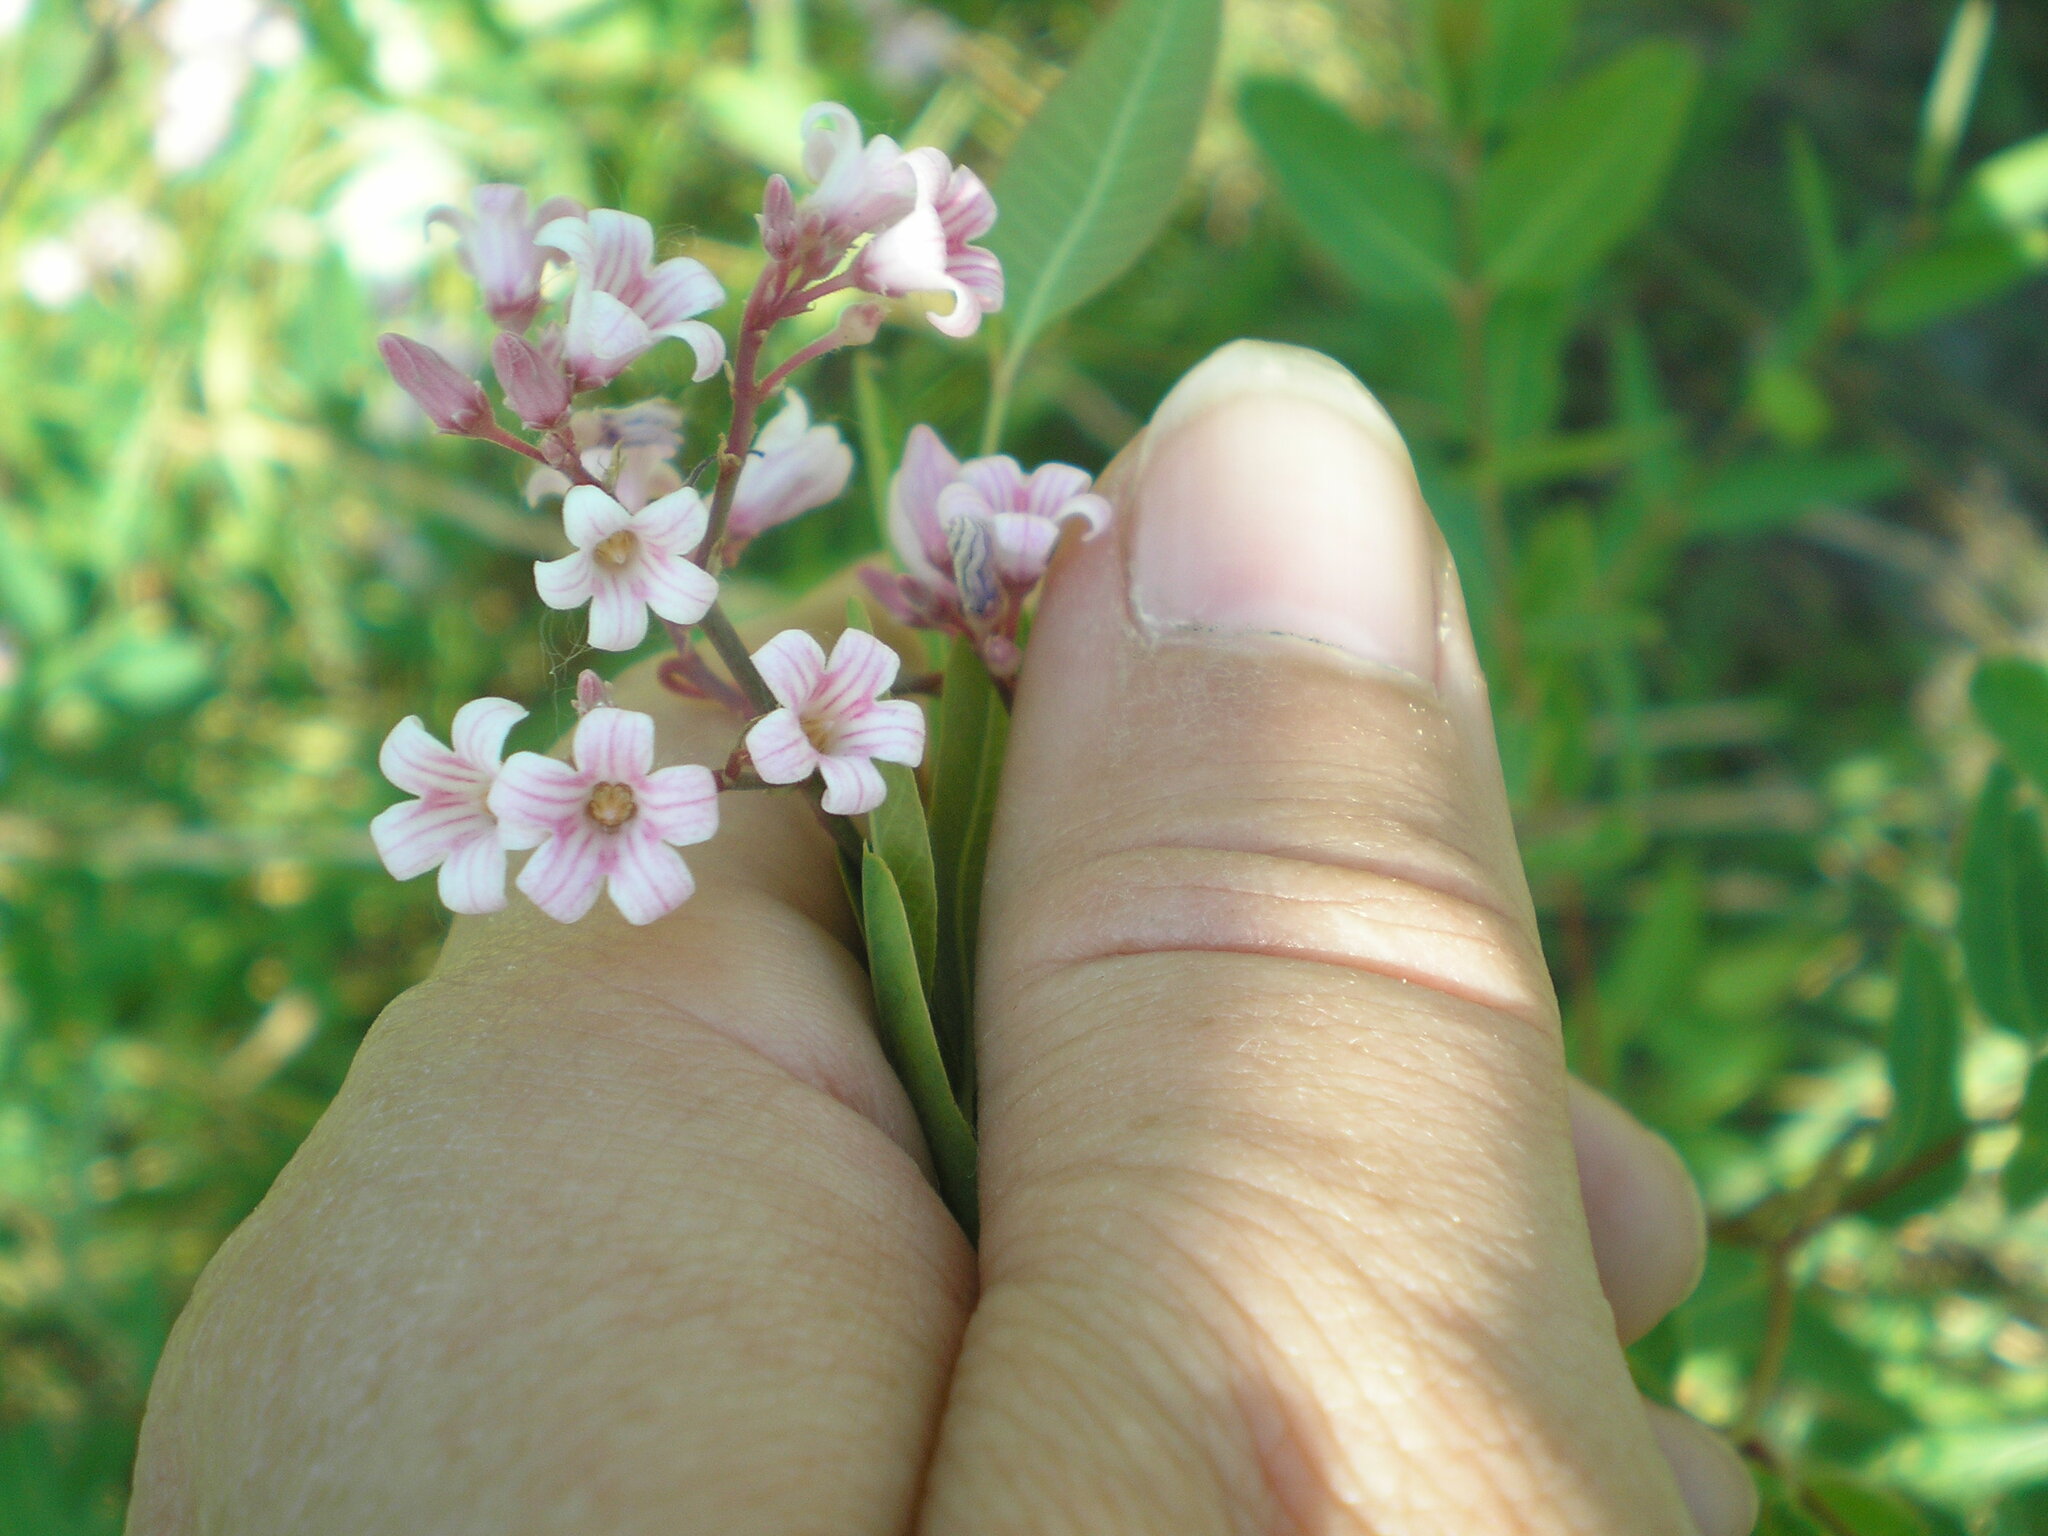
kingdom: Plantae
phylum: Tracheophyta
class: Magnoliopsida
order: Gentianales
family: Apocynaceae
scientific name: Apocynaceae
